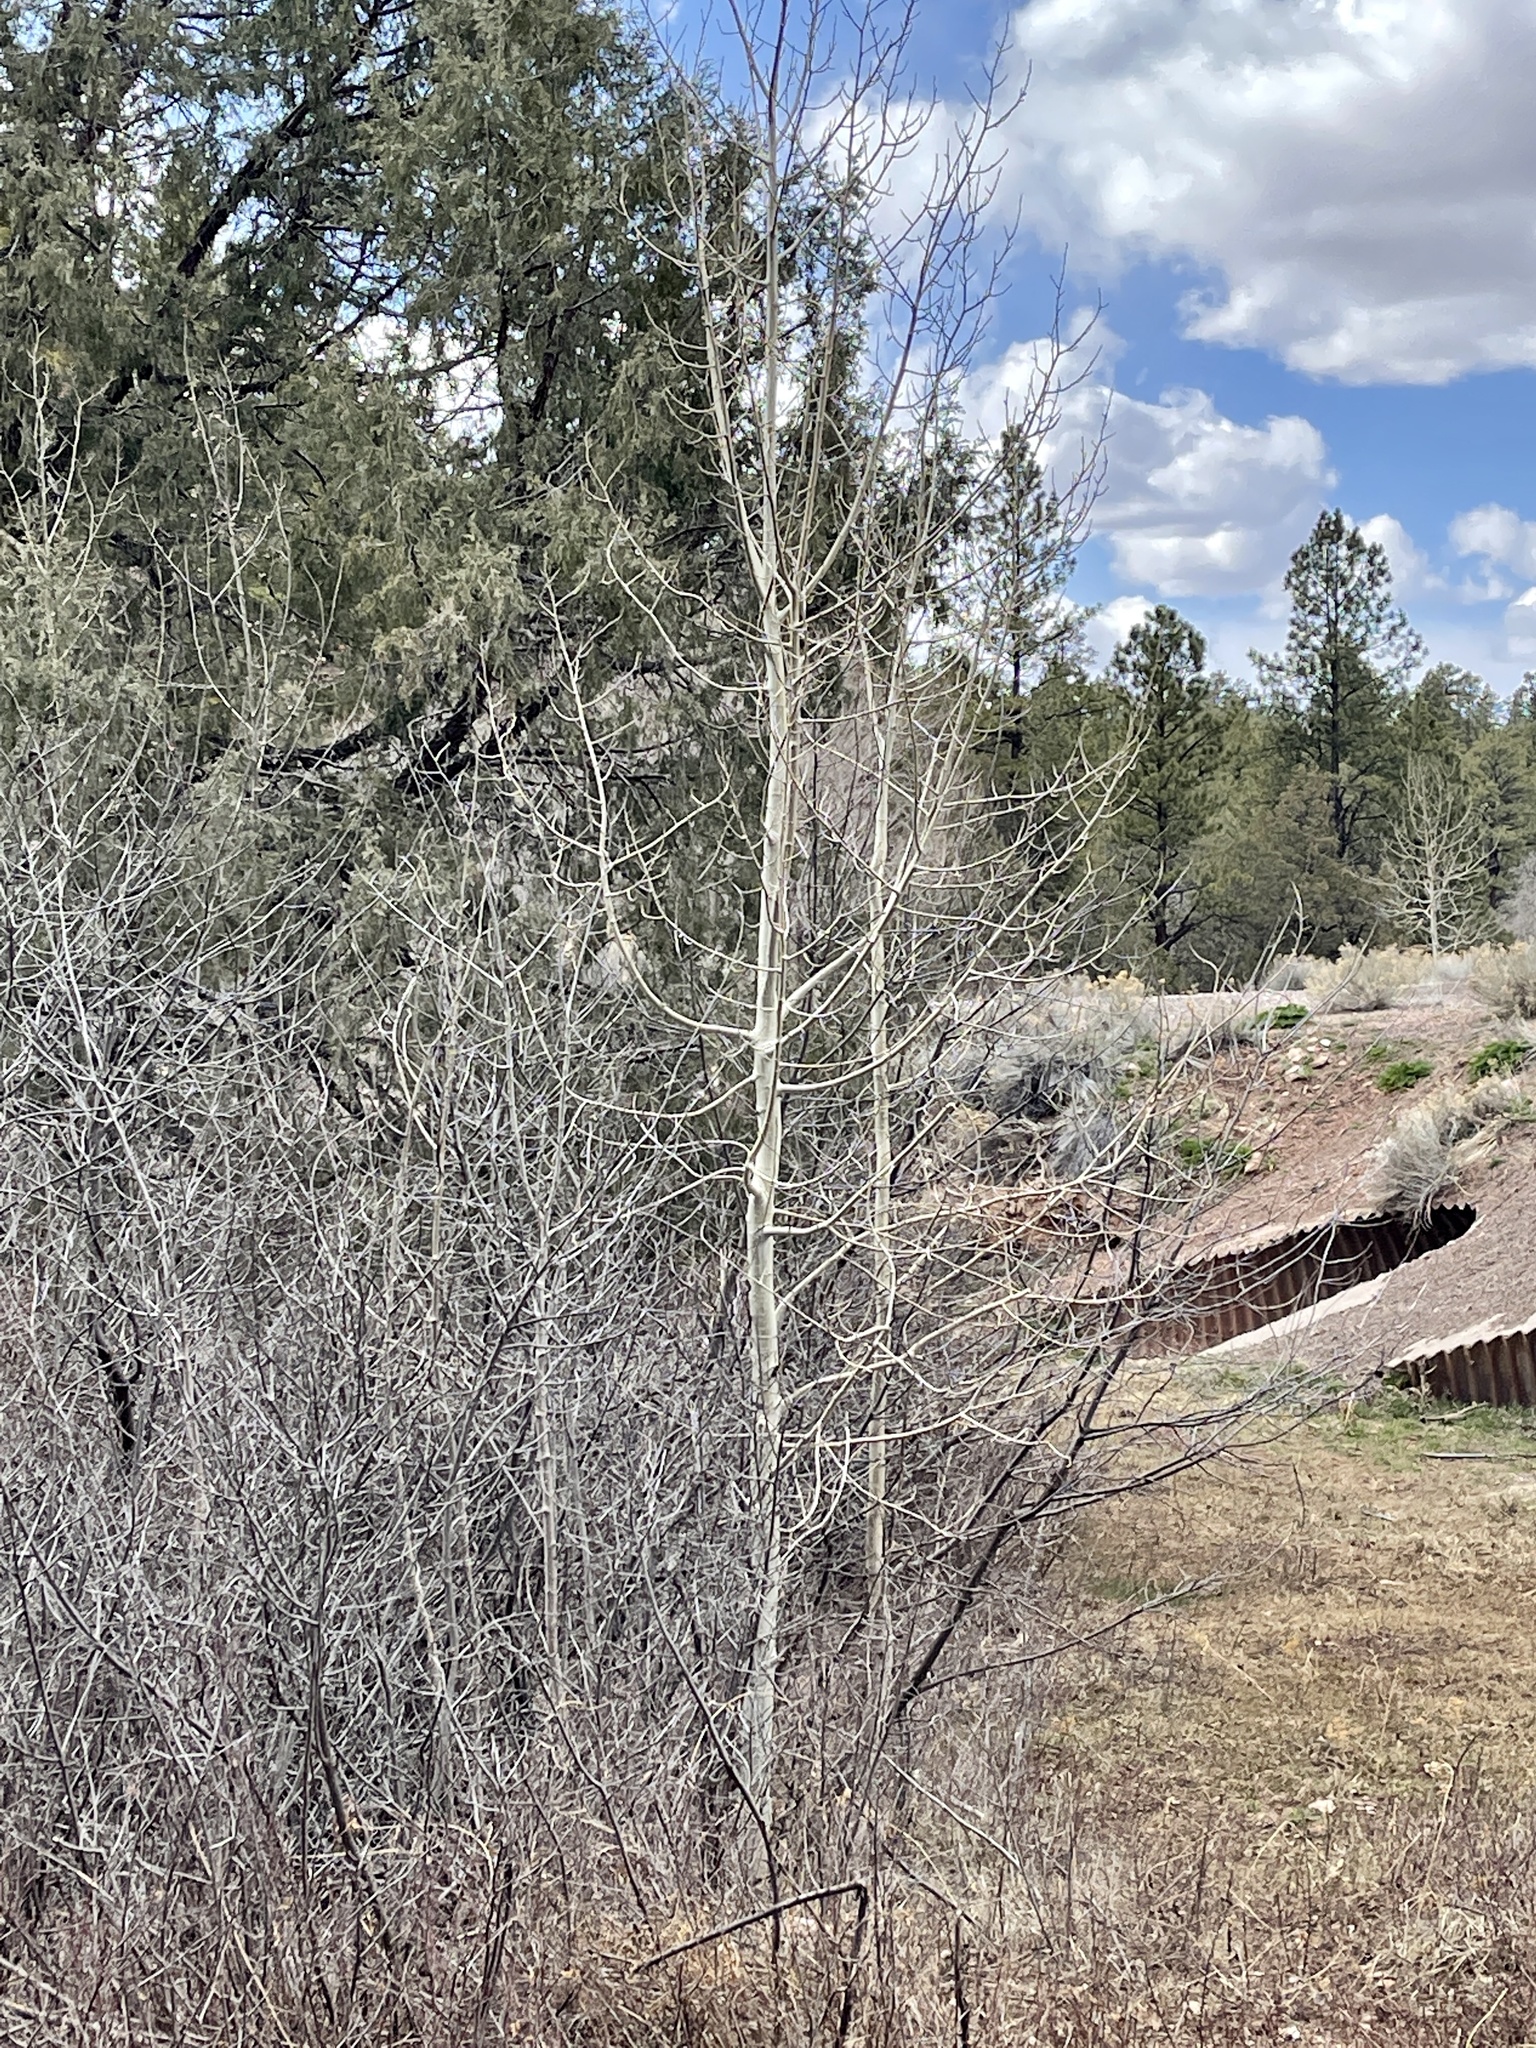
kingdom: Plantae
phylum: Tracheophyta
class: Magnoliopsida
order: Malpighiales
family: Salicaceae
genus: Populus
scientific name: Populus tremuloides
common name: Quaking aspen
